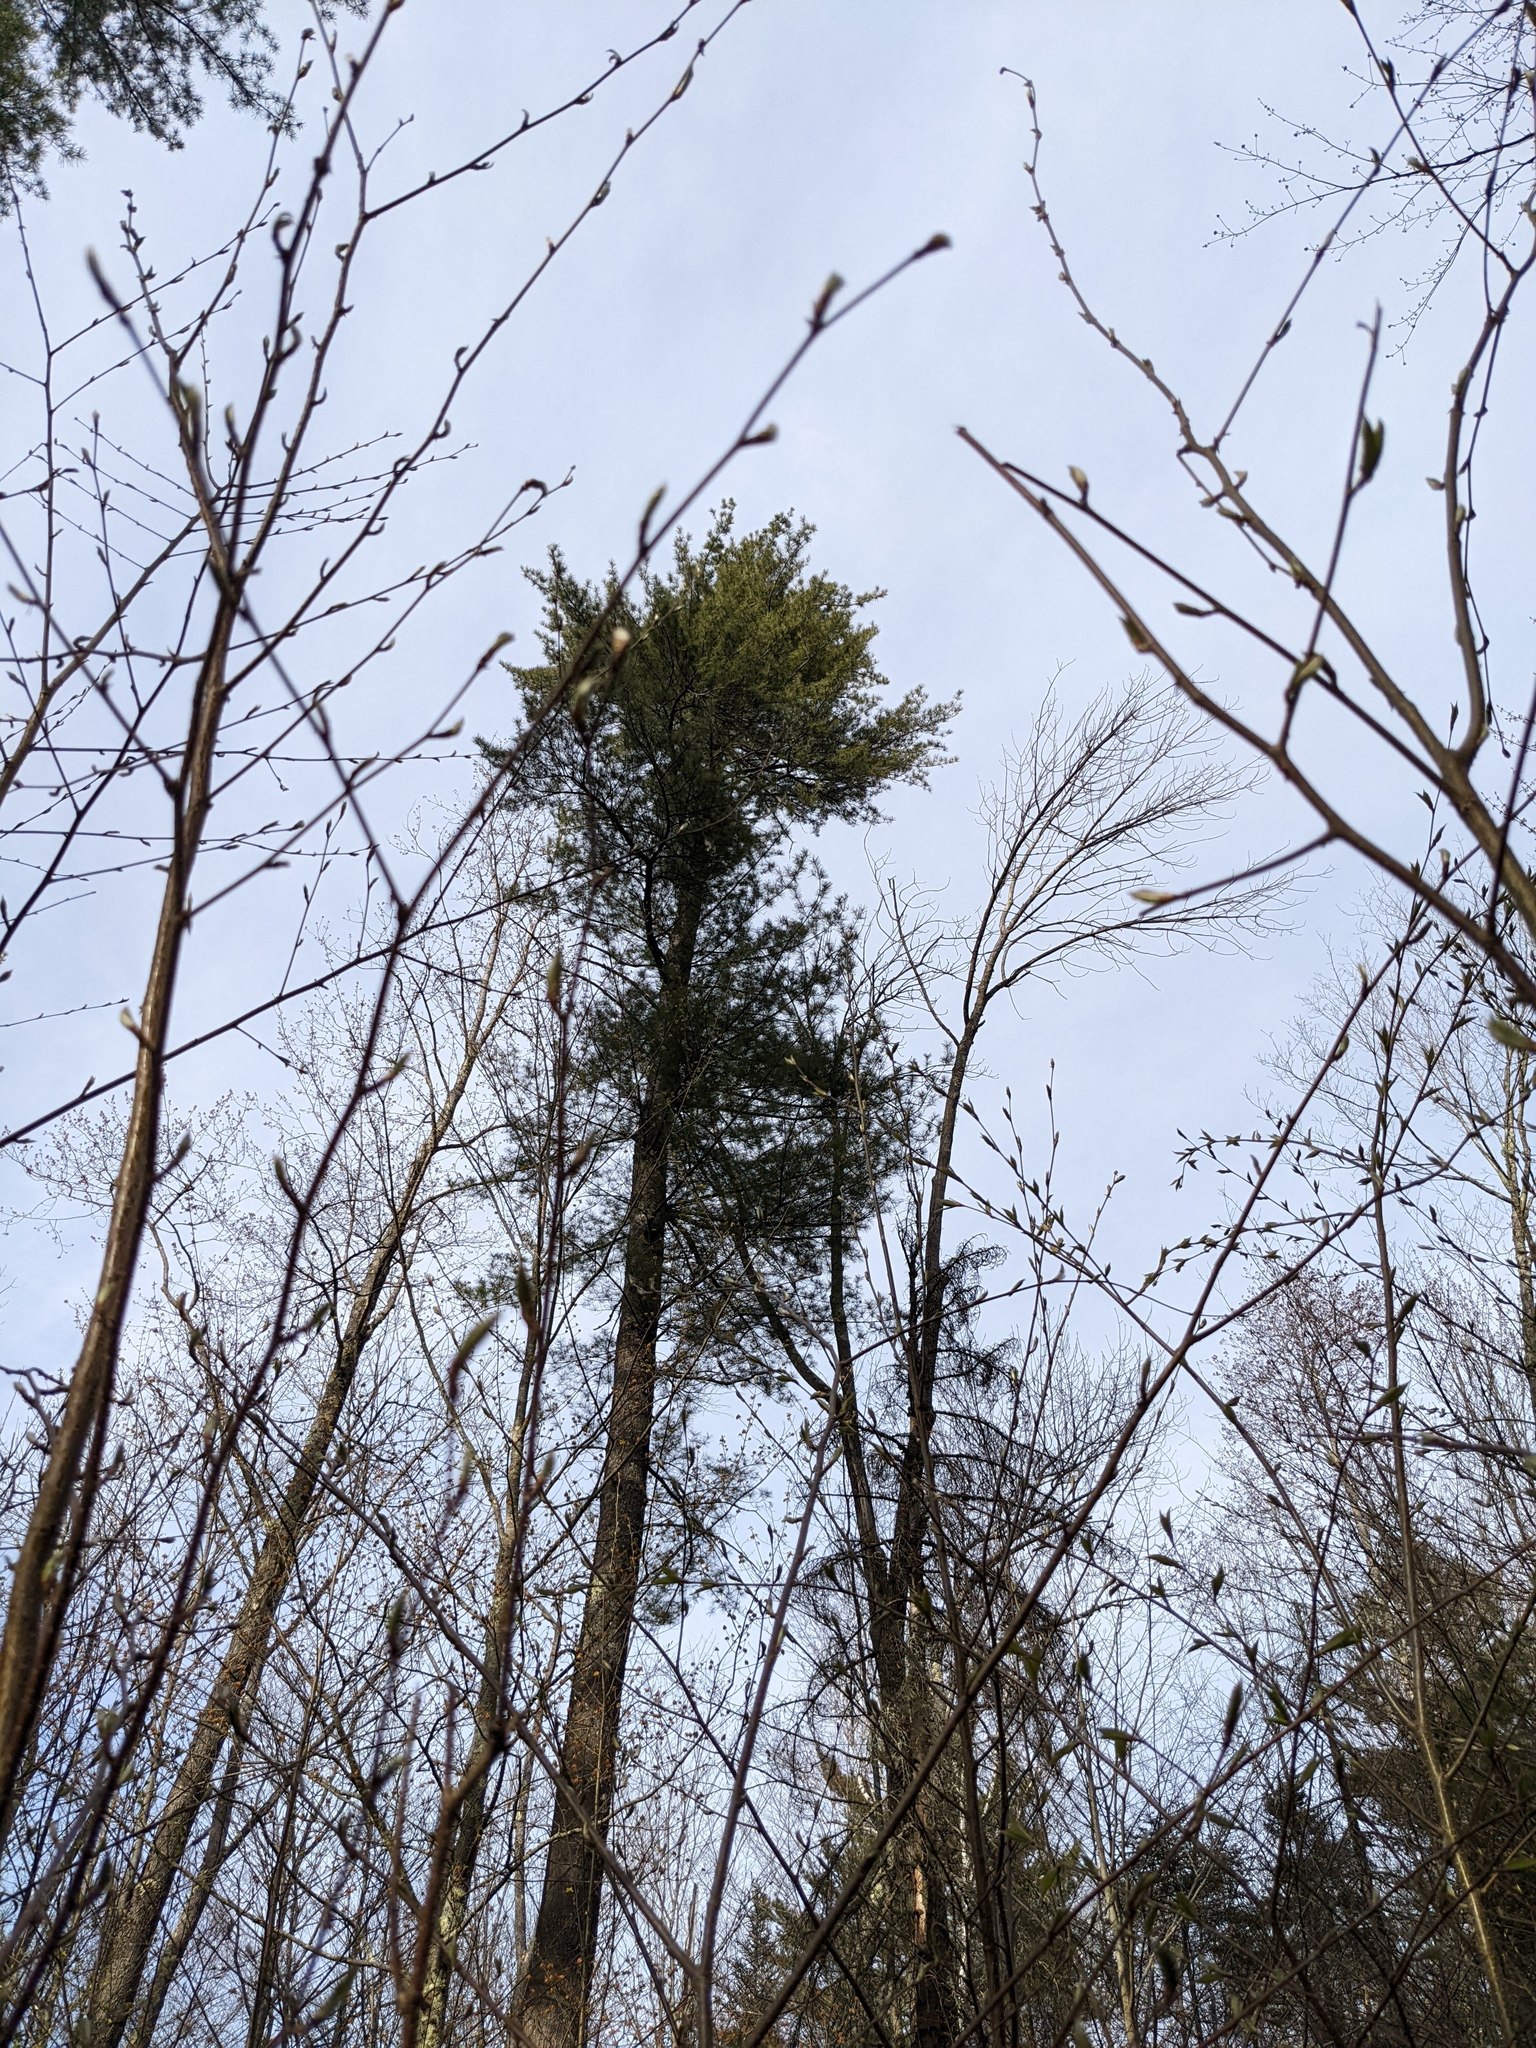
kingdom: Plantae
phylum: Tracheophyta
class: Pinopsida
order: Pinales
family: Pinaceae
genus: Pinus
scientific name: Pinus strobus
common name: Weymouth pine
